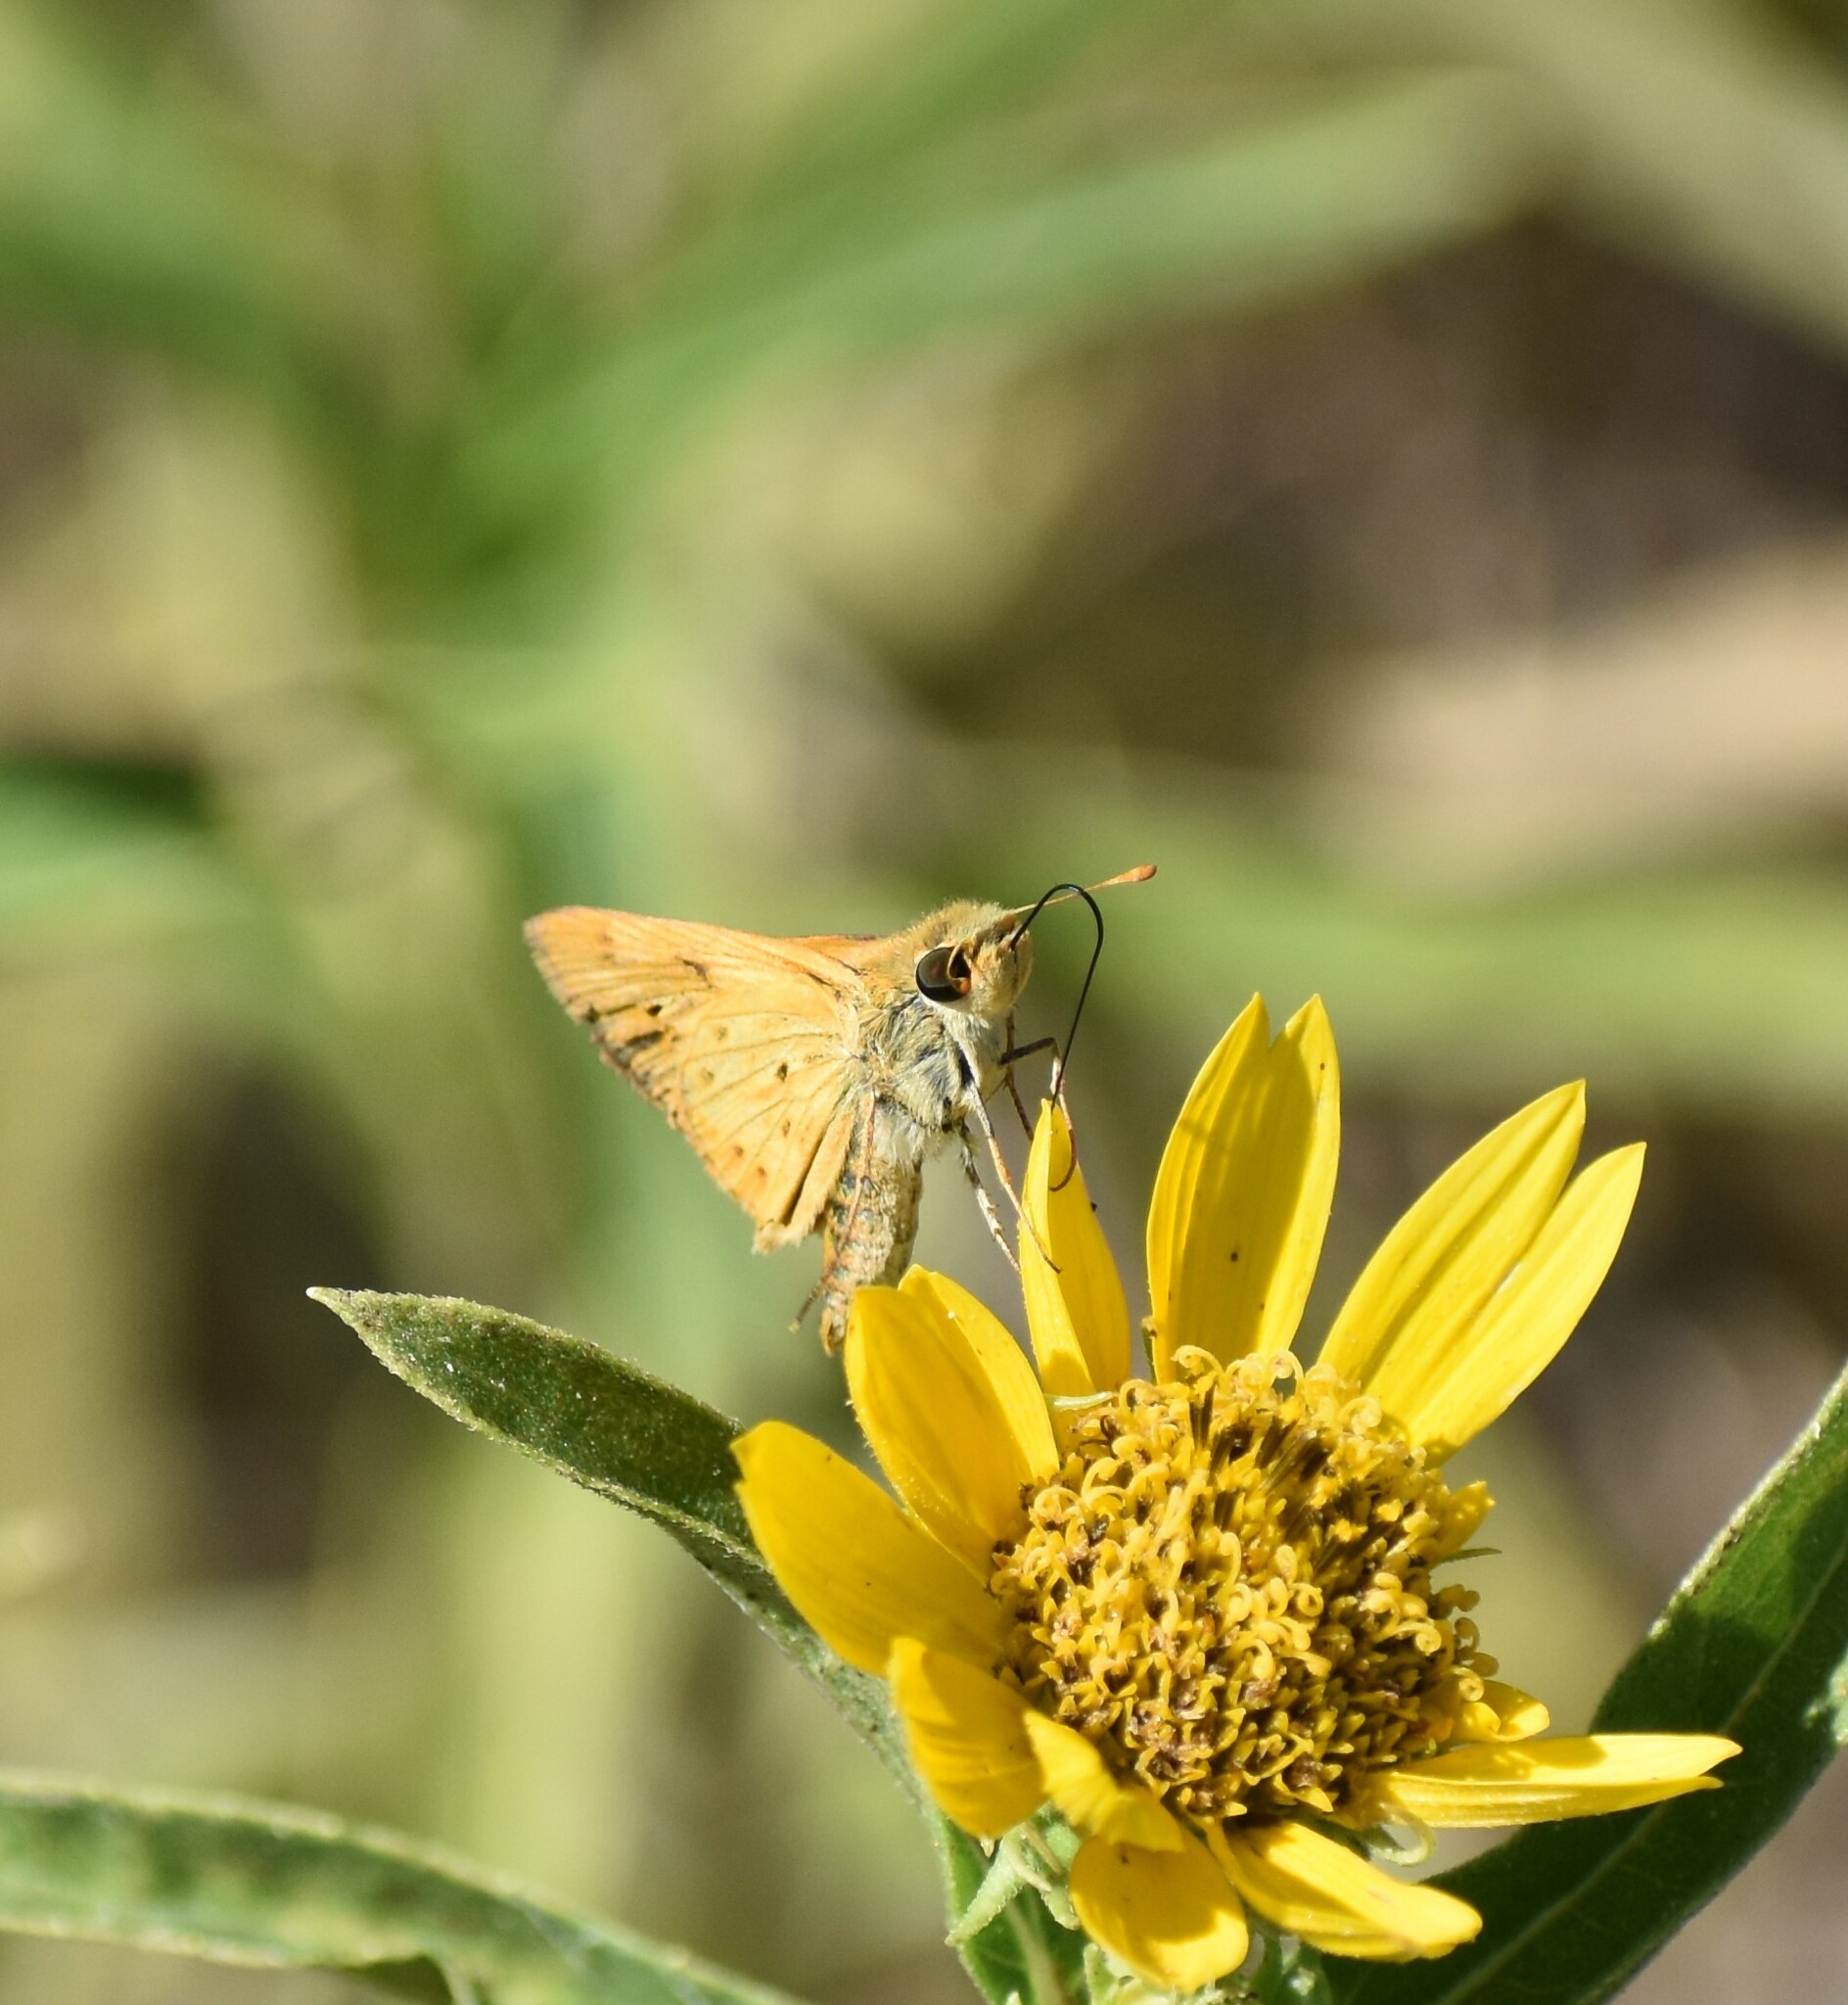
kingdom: Animalia
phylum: Arthropoda
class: Insecta
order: Lepidoptera
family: Hesperiidae
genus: Hylephila
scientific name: Hylephila phyleus
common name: Fiery skipper
